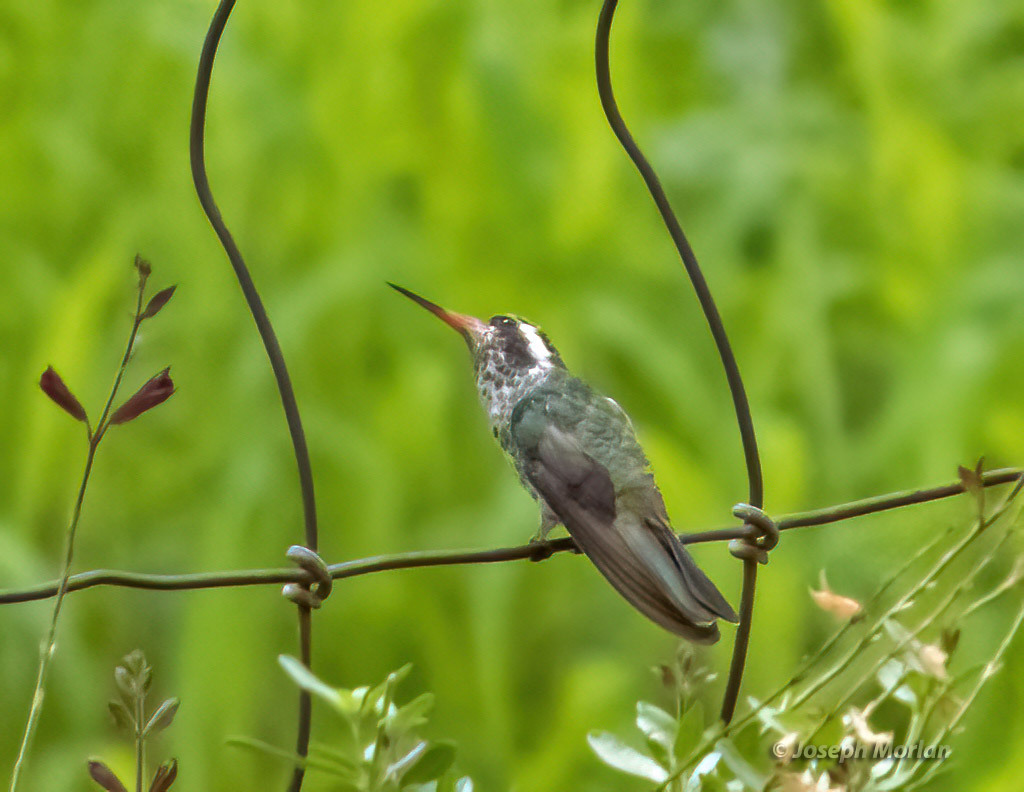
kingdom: Animalia
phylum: Chordata
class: Aves
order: Apodiformes
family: Trochilidae
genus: Basilinna
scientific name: Basilinna leucotis
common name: White-eared hummingbird
